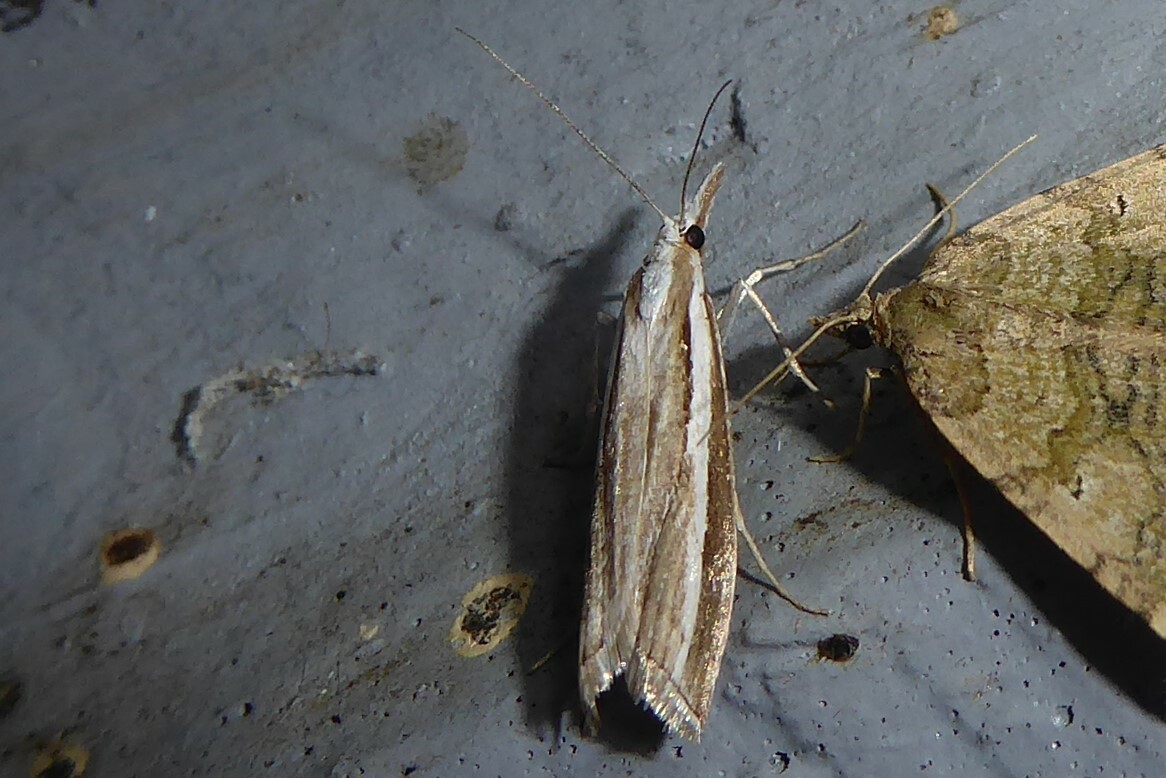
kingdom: Animalia
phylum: Arthropoda
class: Insecta
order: Lepidoptera
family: Crambidae
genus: Orocrambus
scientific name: Orocrambus vittellus
